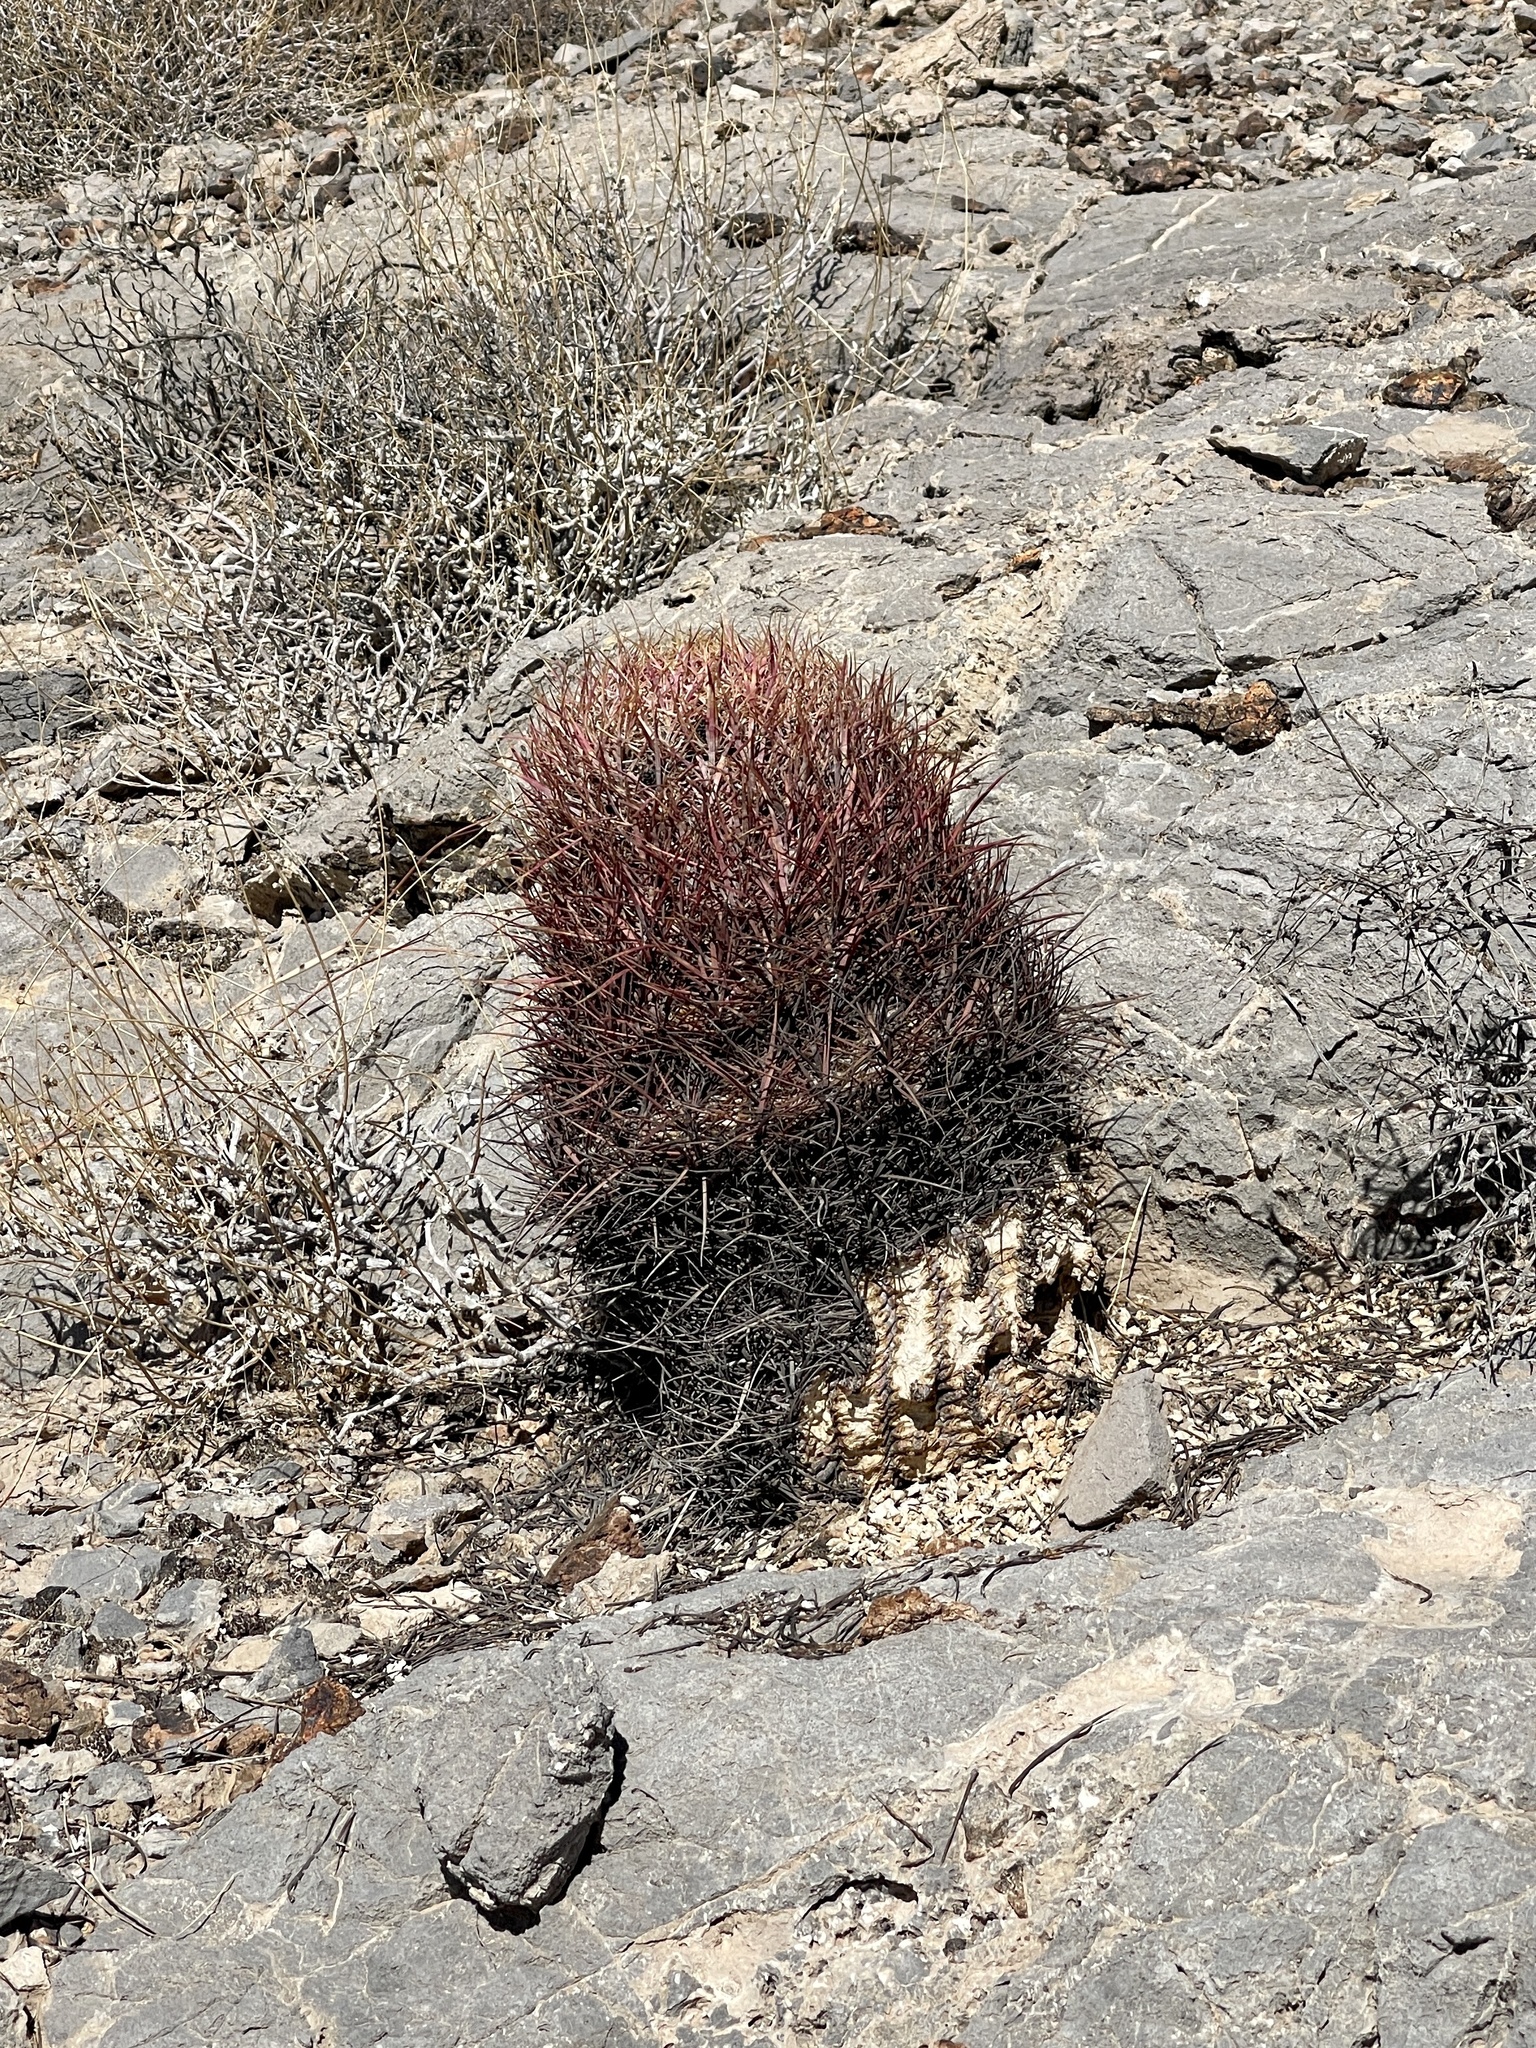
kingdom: Plantae
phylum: Tracheophyta
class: Magnoliopsida
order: Caryophyllales
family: Cactaceae
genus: Ferocactus
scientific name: Ferocactus cylindraceus
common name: California barrel cactus
